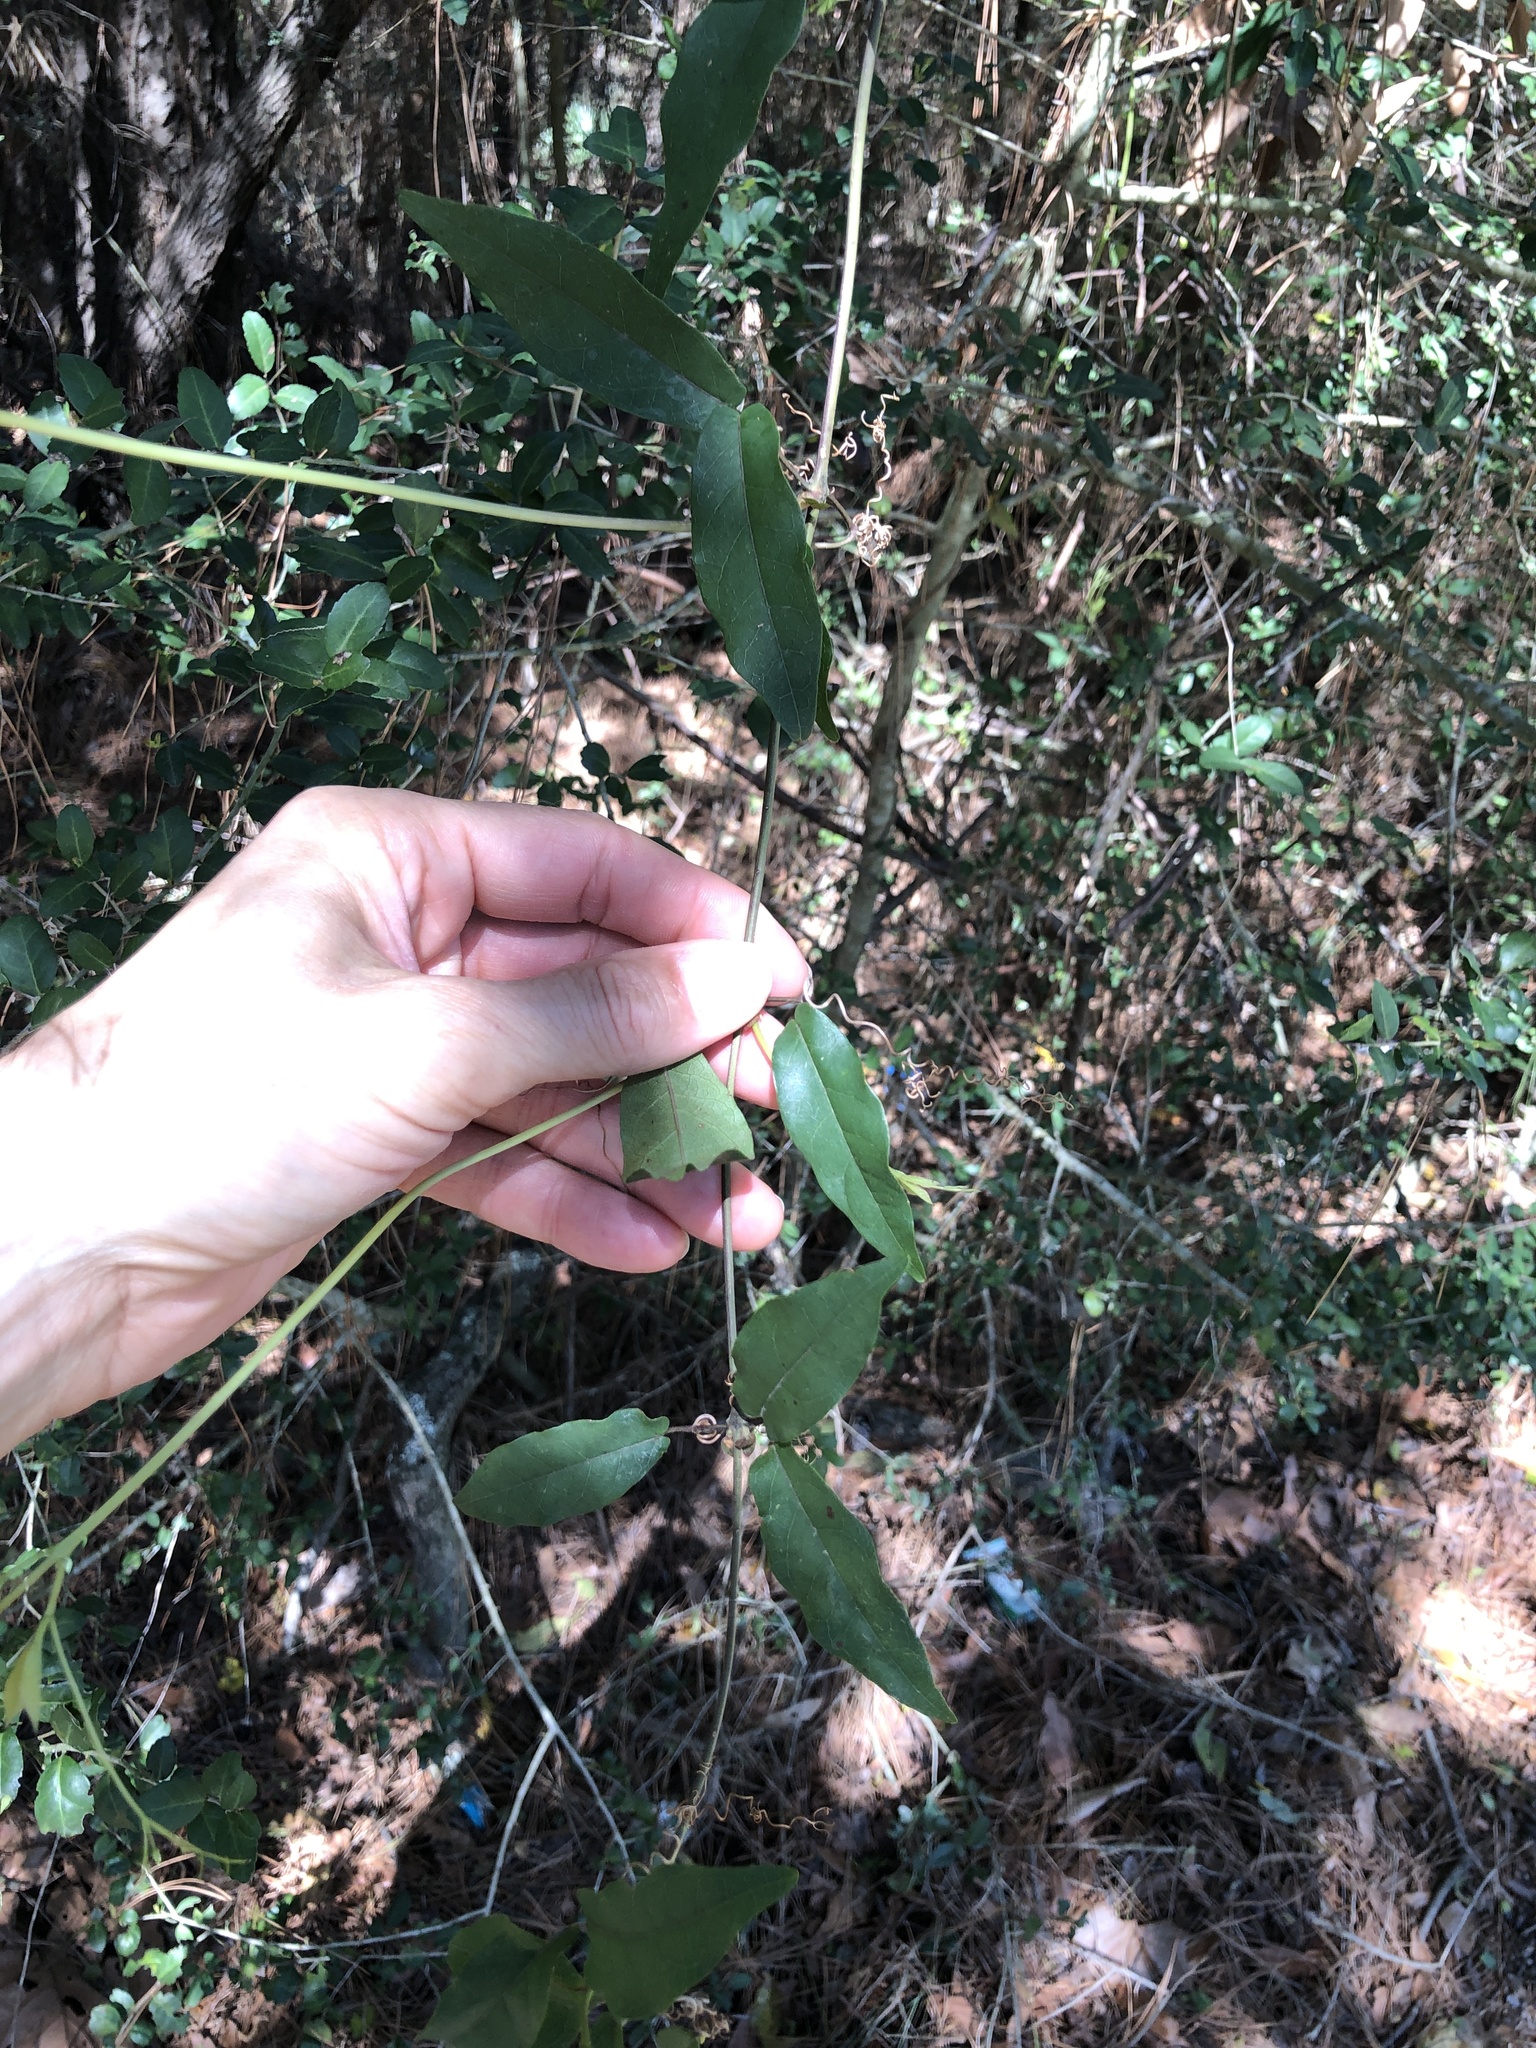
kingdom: Plantae
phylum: Tracheophyta
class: Magnoliopsida
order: Lamiales
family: Bignoniaceae
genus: Bignonia
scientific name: Bignonia capreolata
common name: Crossvine
